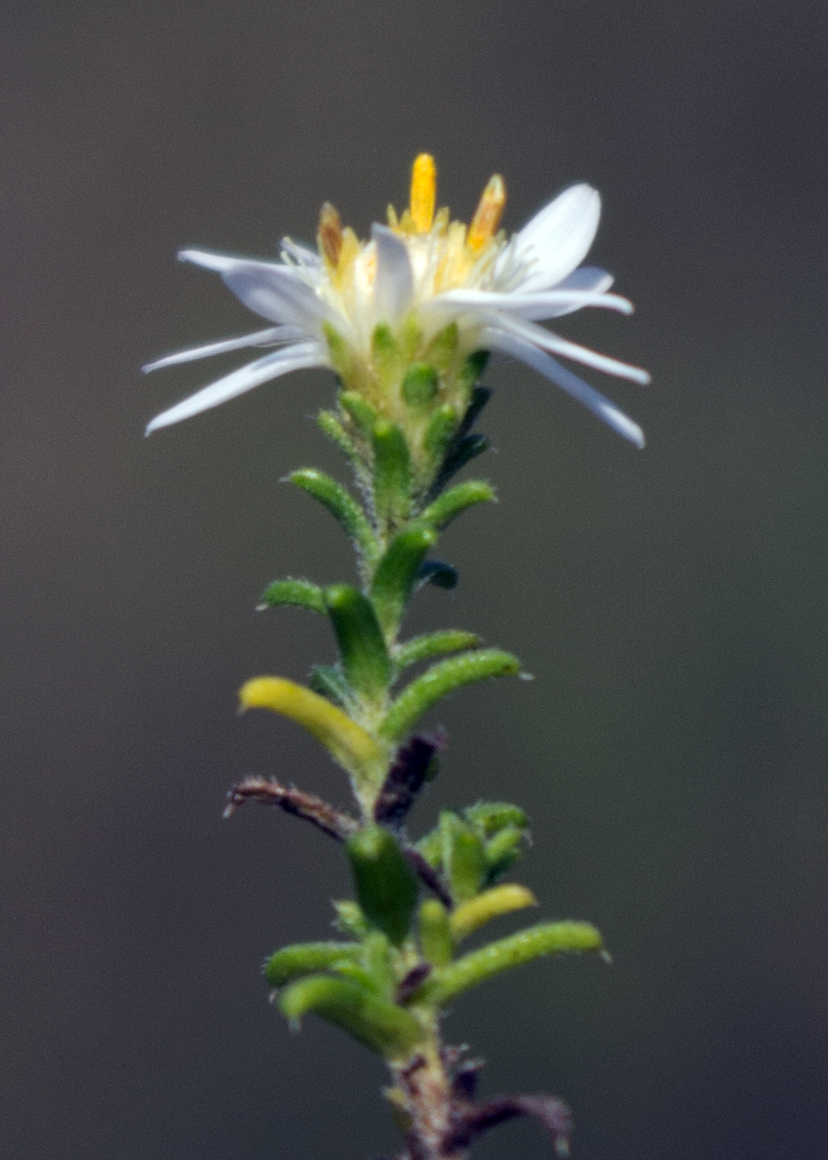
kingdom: Plantae
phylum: Tracheophyta
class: Magnoliopsida
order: Asterales
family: Asteraceae
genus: Symphyotrichum
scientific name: Symphyotrichum ericoides
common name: Heath aster
